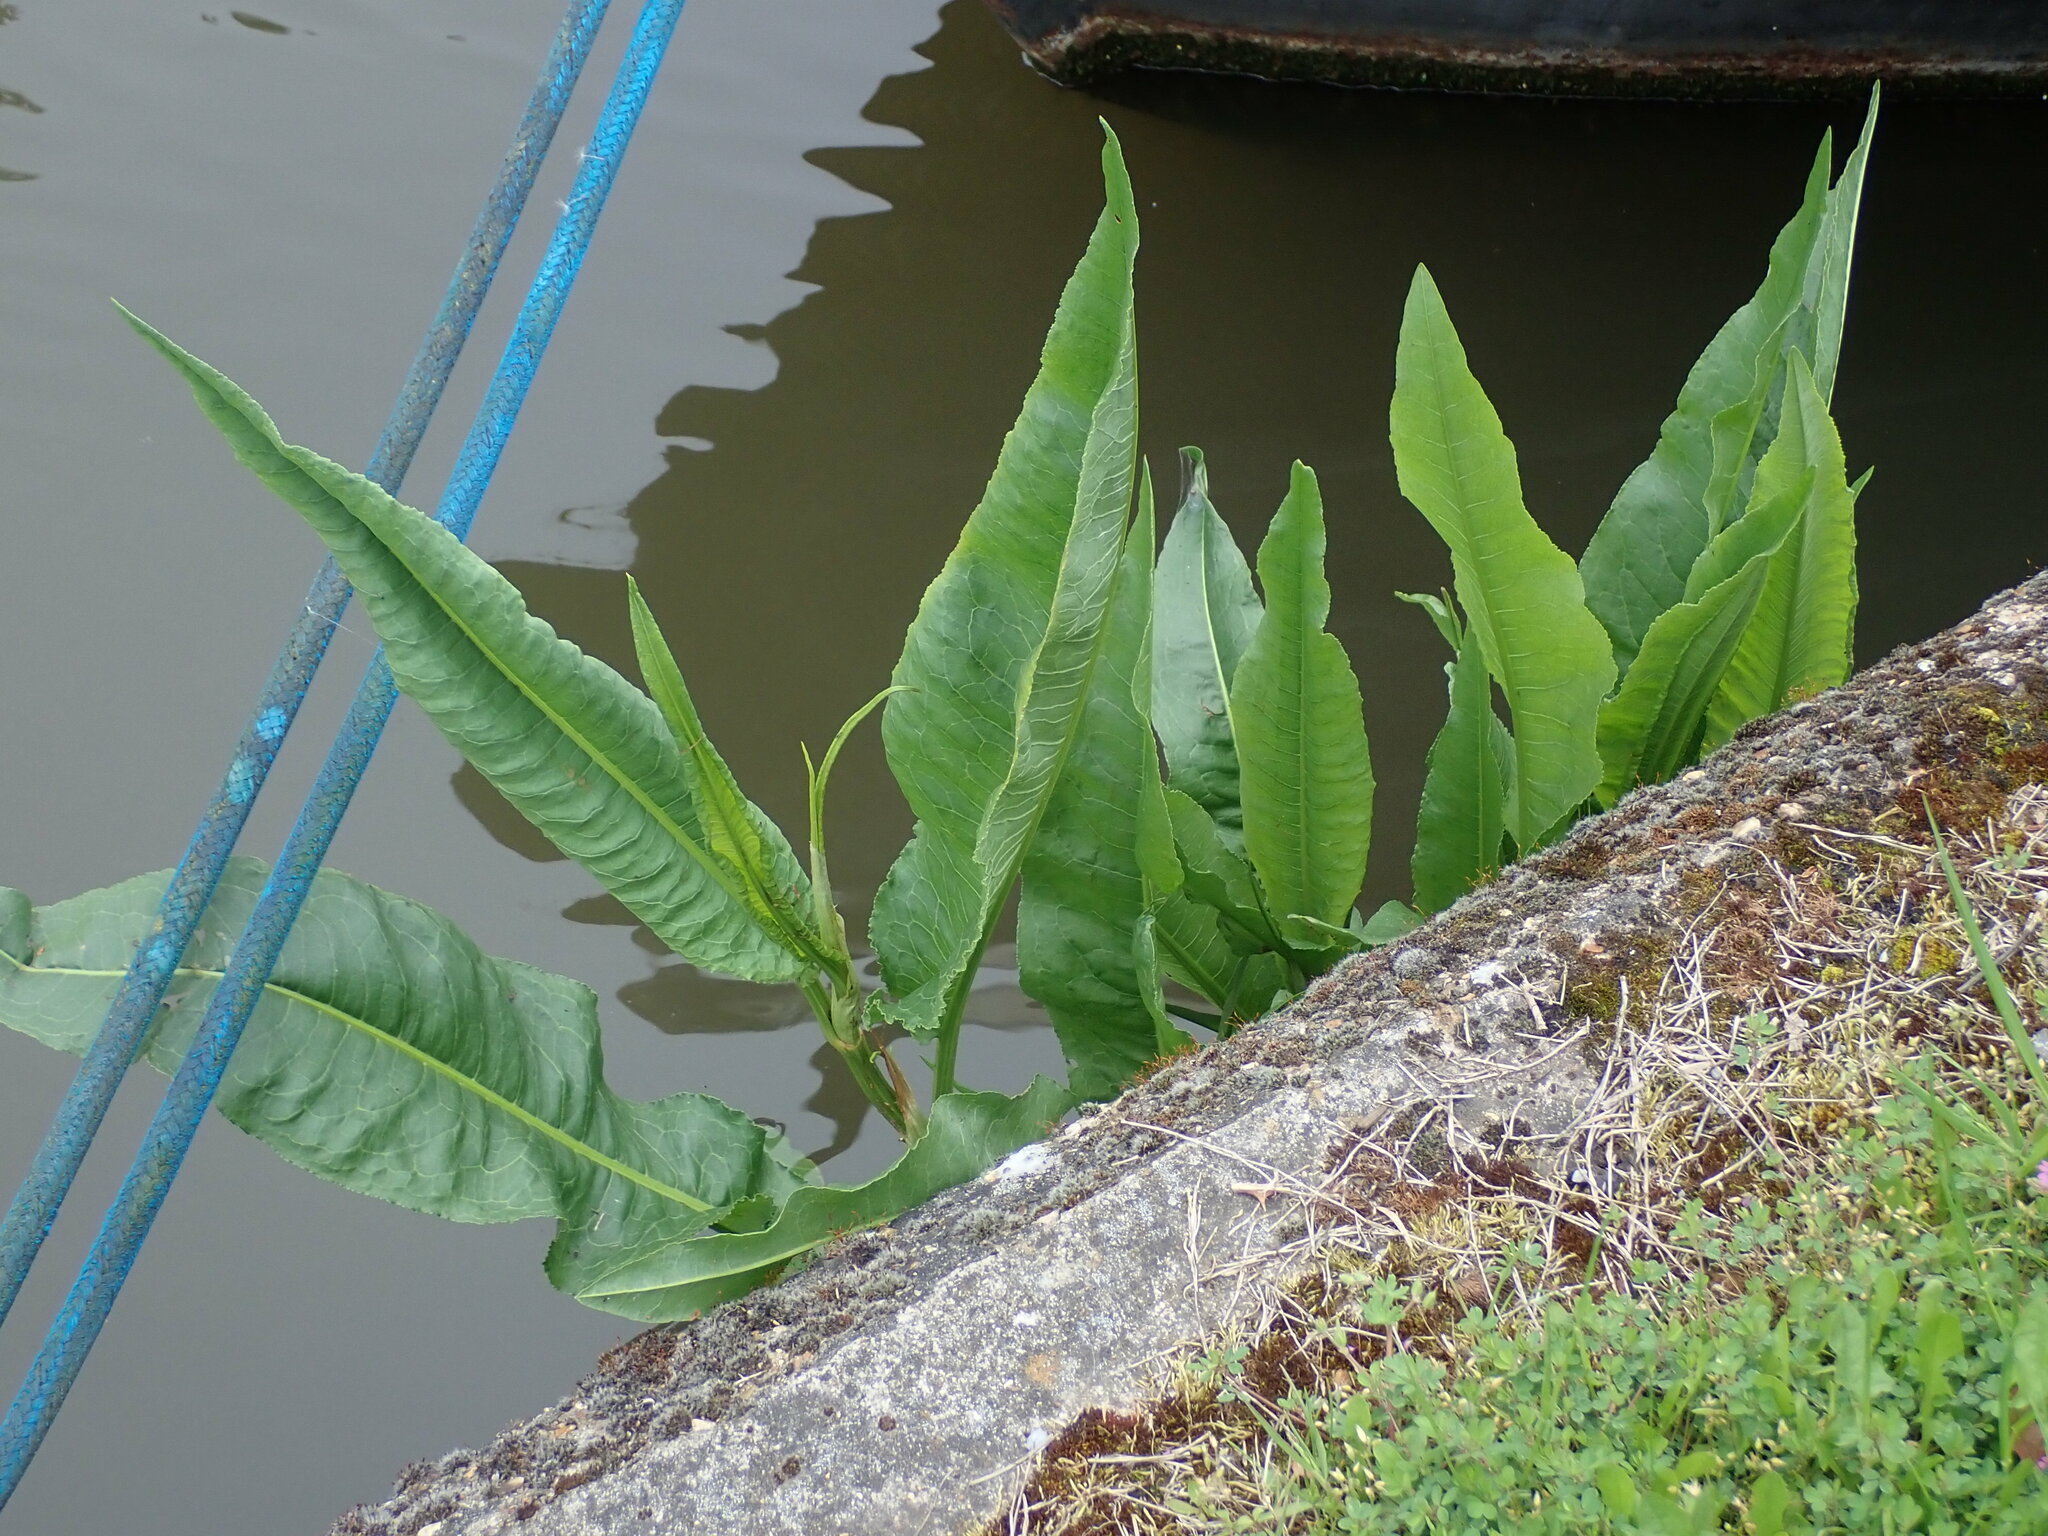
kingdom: Plantae
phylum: Tracheophyta
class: Magnoliopsida
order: Caryophyllales
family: Polygonaceae
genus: Rumex
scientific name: Rumex hydrolapathum
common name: Water dock
